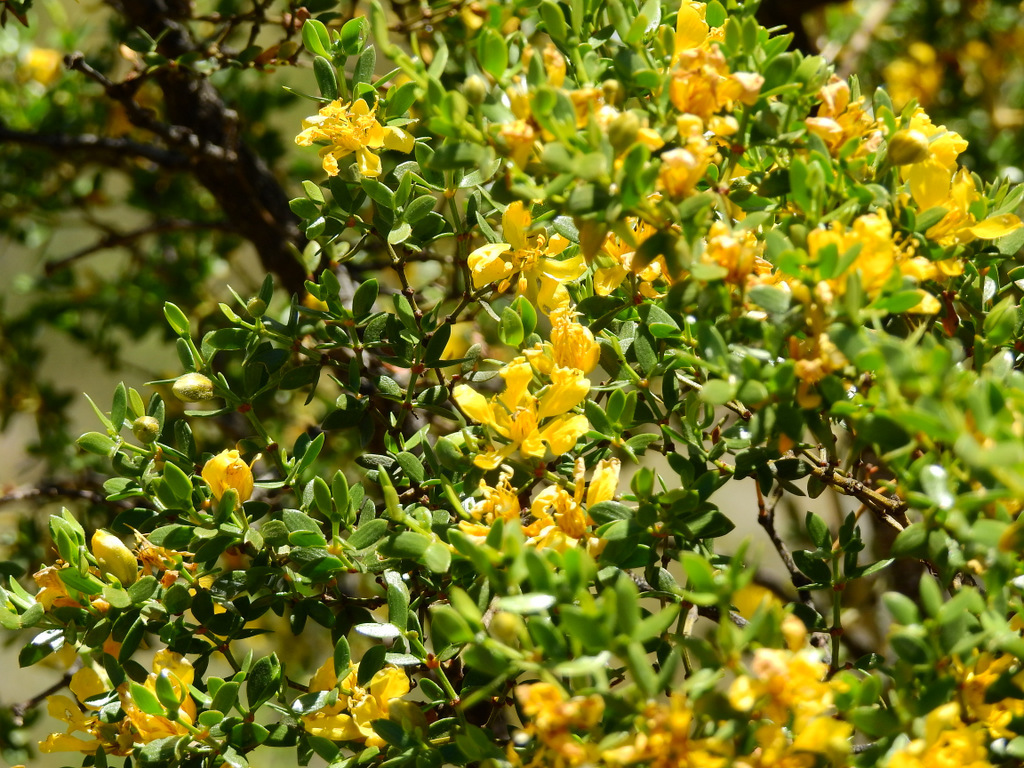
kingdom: Plantae
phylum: Tracheophyta
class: Magnoliopsida
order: Zygophyllales
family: Zygophyllaceae
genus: Larrea
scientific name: Larrea divaricata
